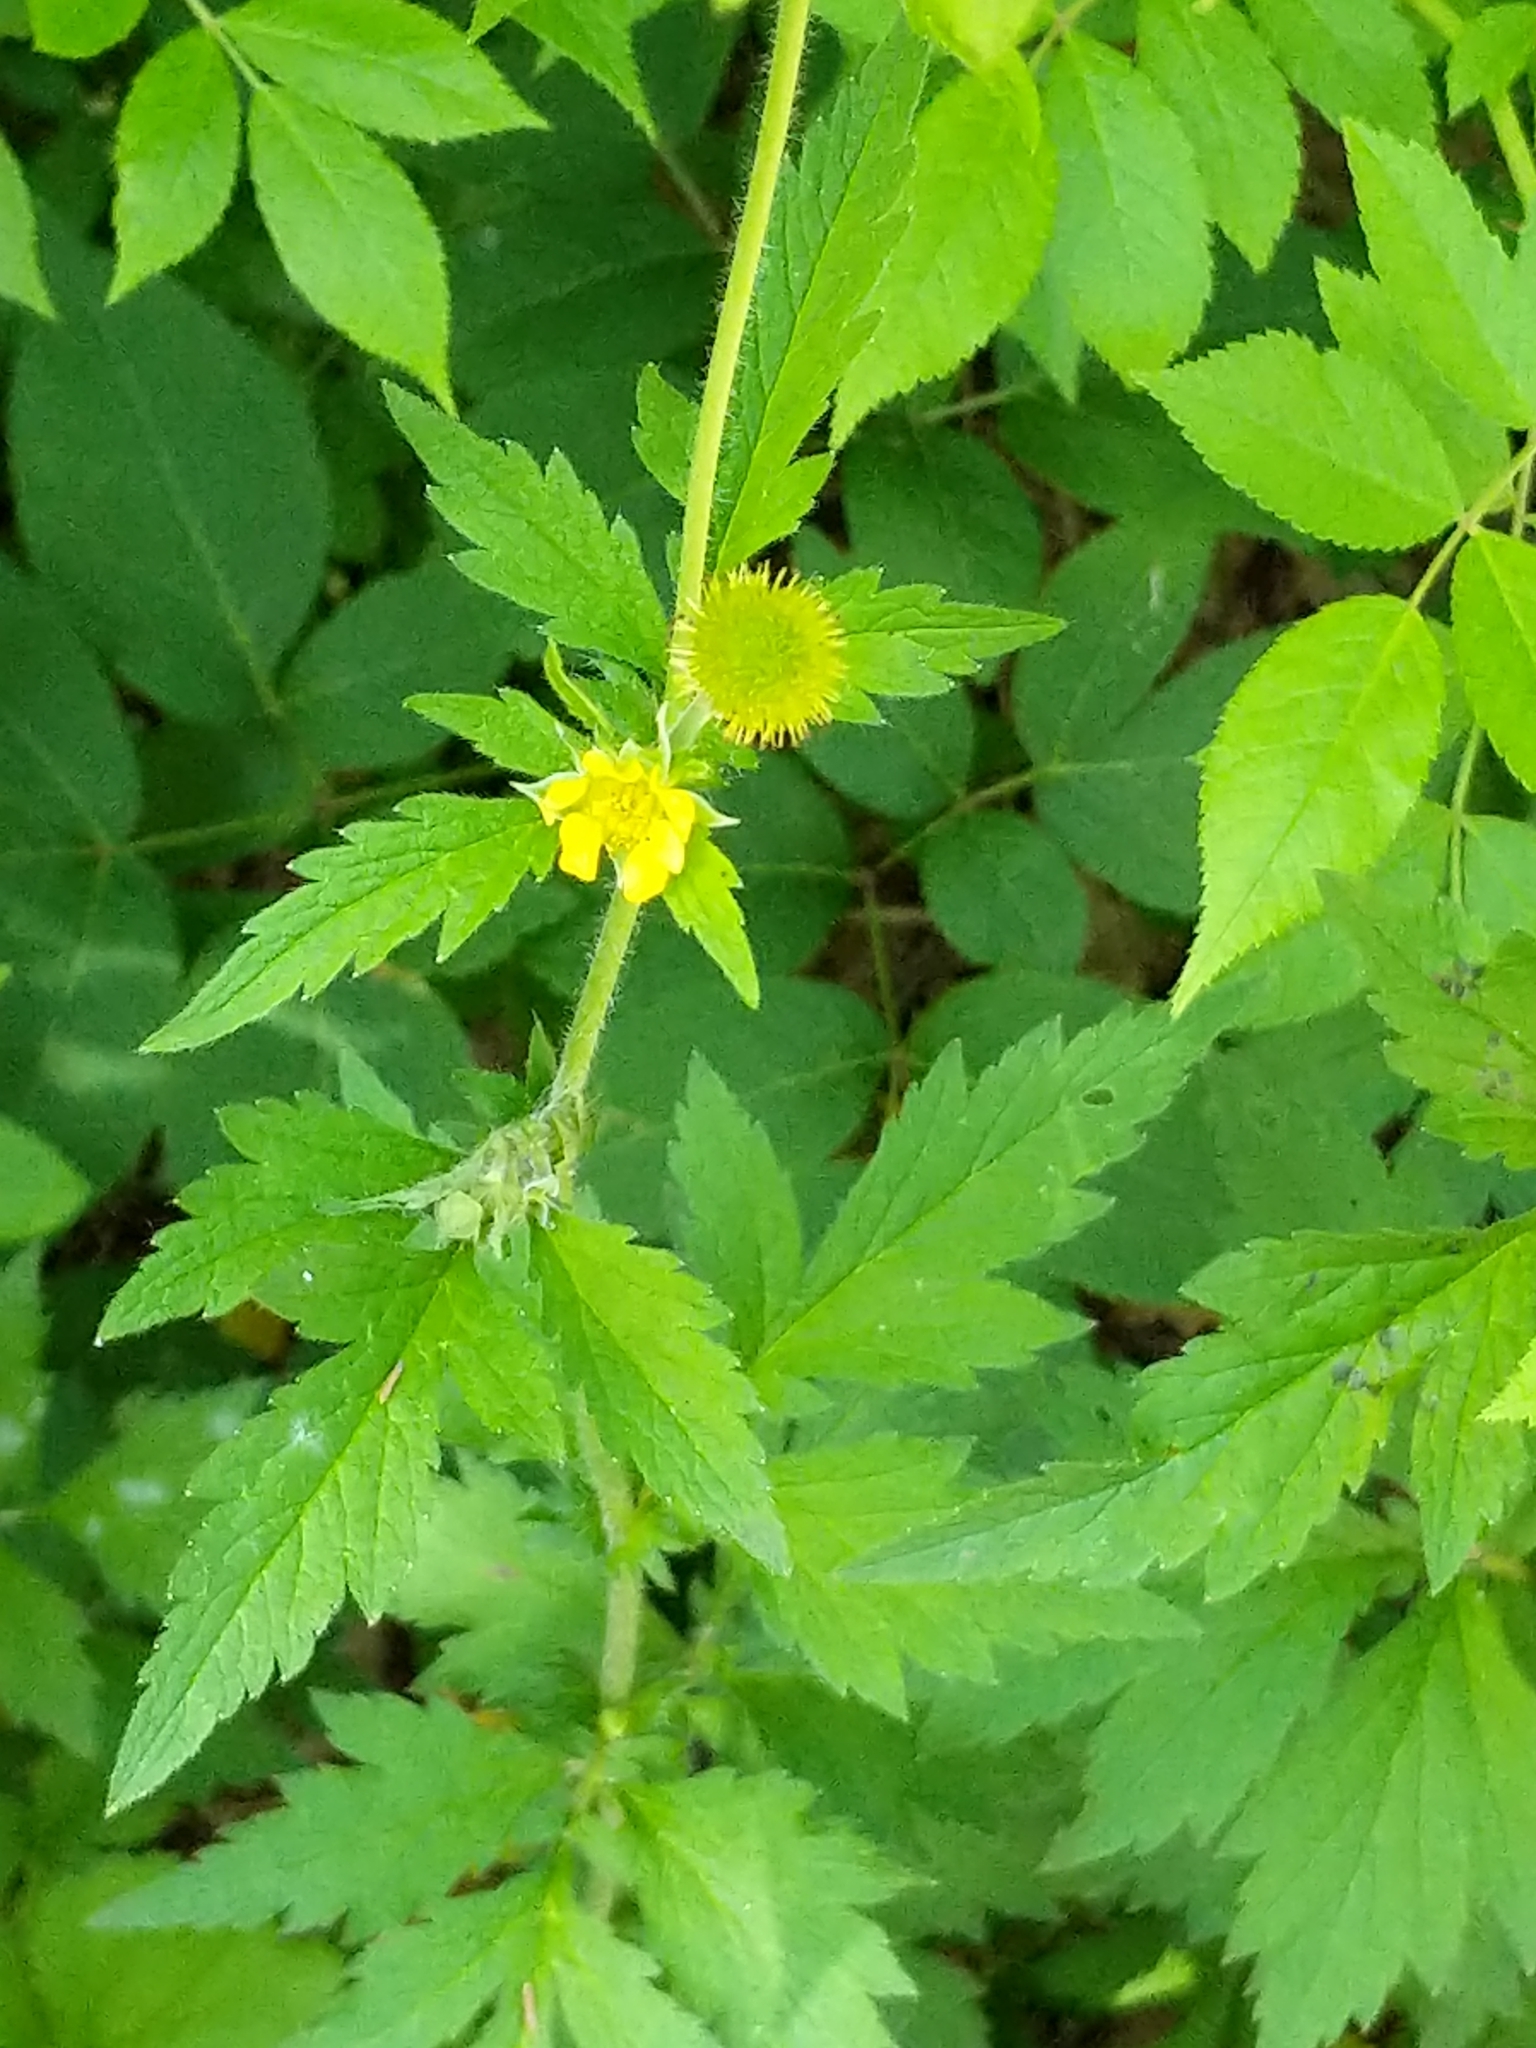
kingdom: Plantae
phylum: Tracheophyta
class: Magnoliopsida
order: Rosales
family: Rosaceae
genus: Geum
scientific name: Geum aleppicum
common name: Yellow avens
